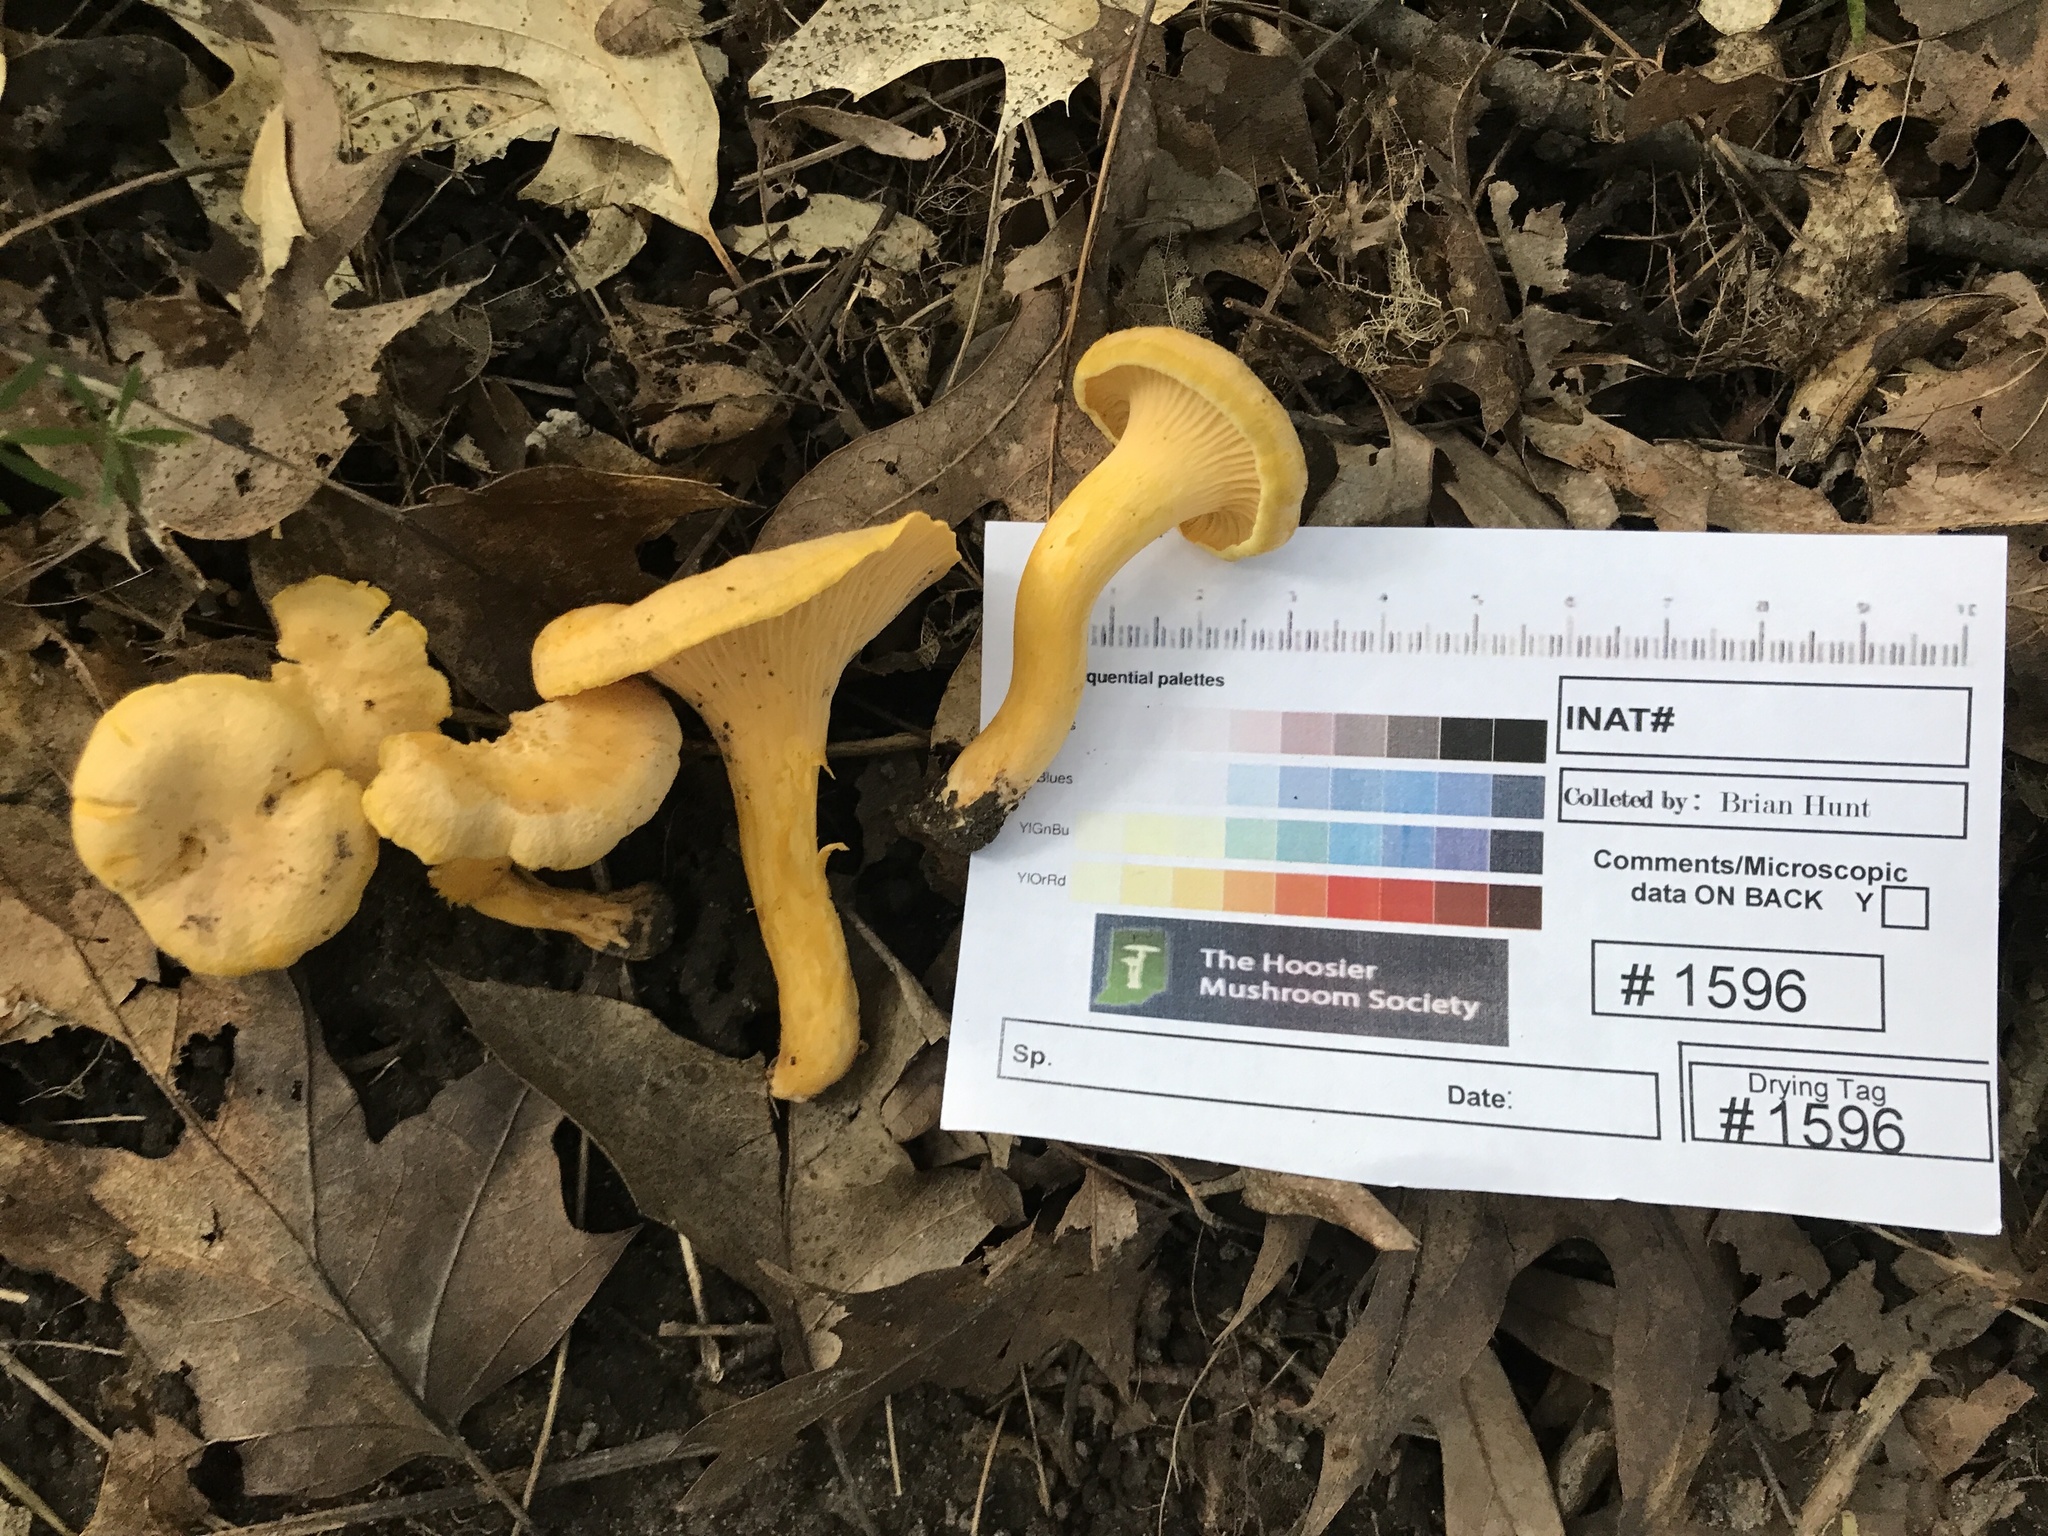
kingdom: Fungi
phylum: Basidiomycota
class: Agaricomycetes
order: Cantharellales
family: Hydnaceae
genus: Cantharellus
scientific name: Cantharellus chicagoensis
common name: Chicago chanterelle
